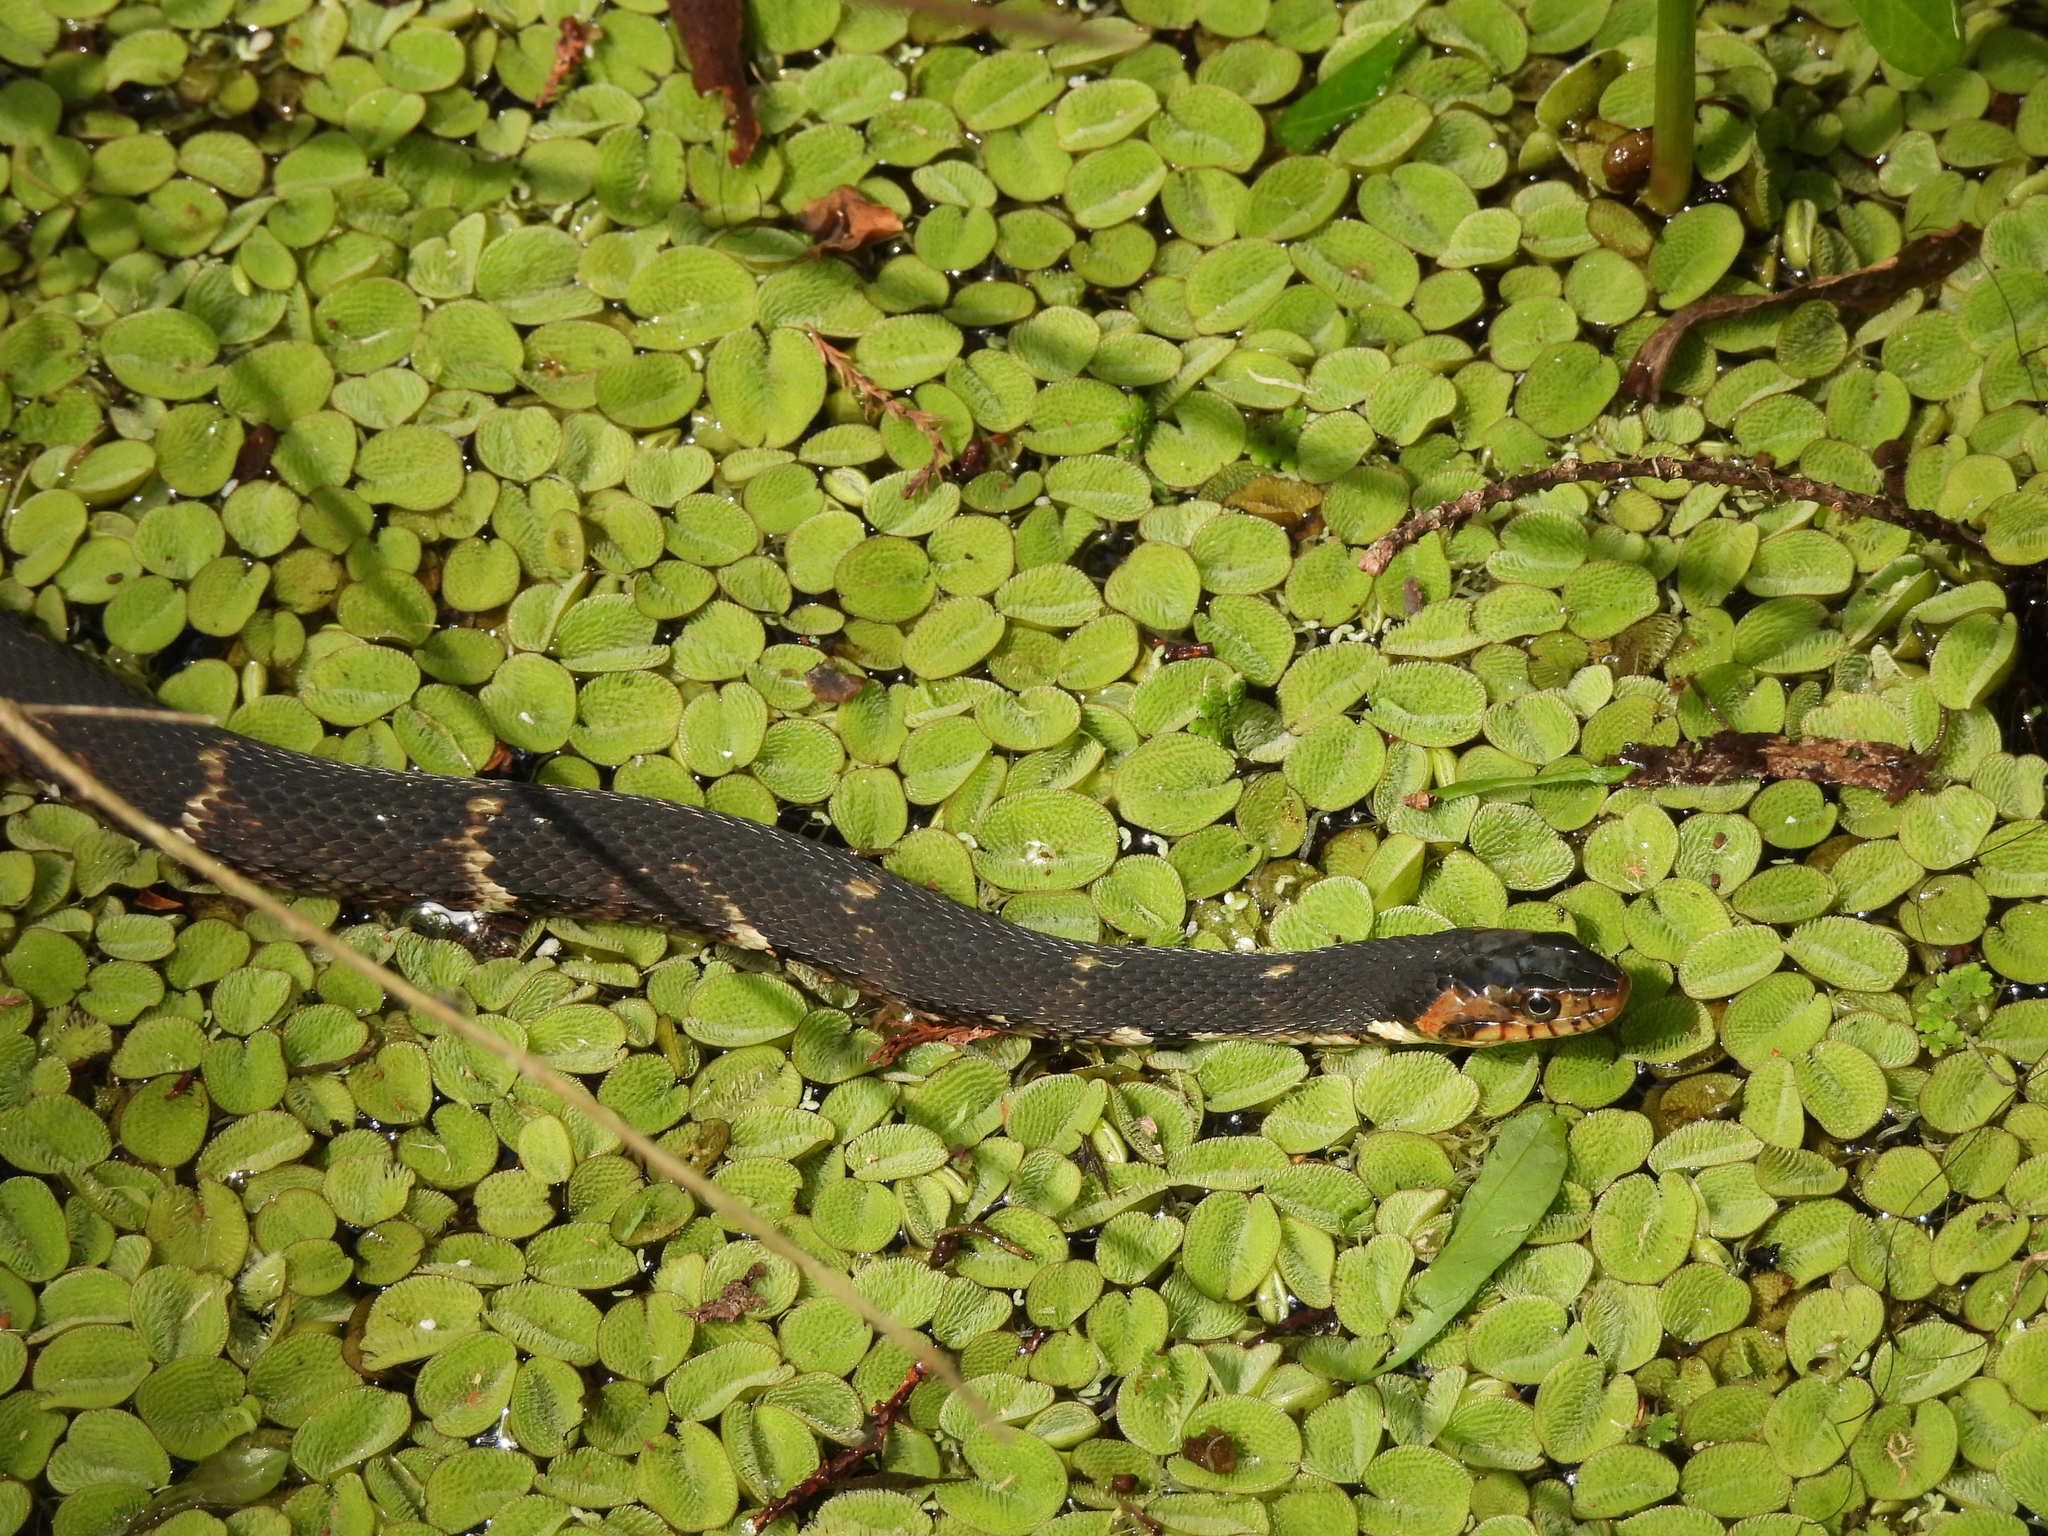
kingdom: Animalia
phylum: Chordata
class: Squamata
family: Colubridae
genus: Nerodia
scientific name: Nerodia fasciata
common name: Southern water snake
